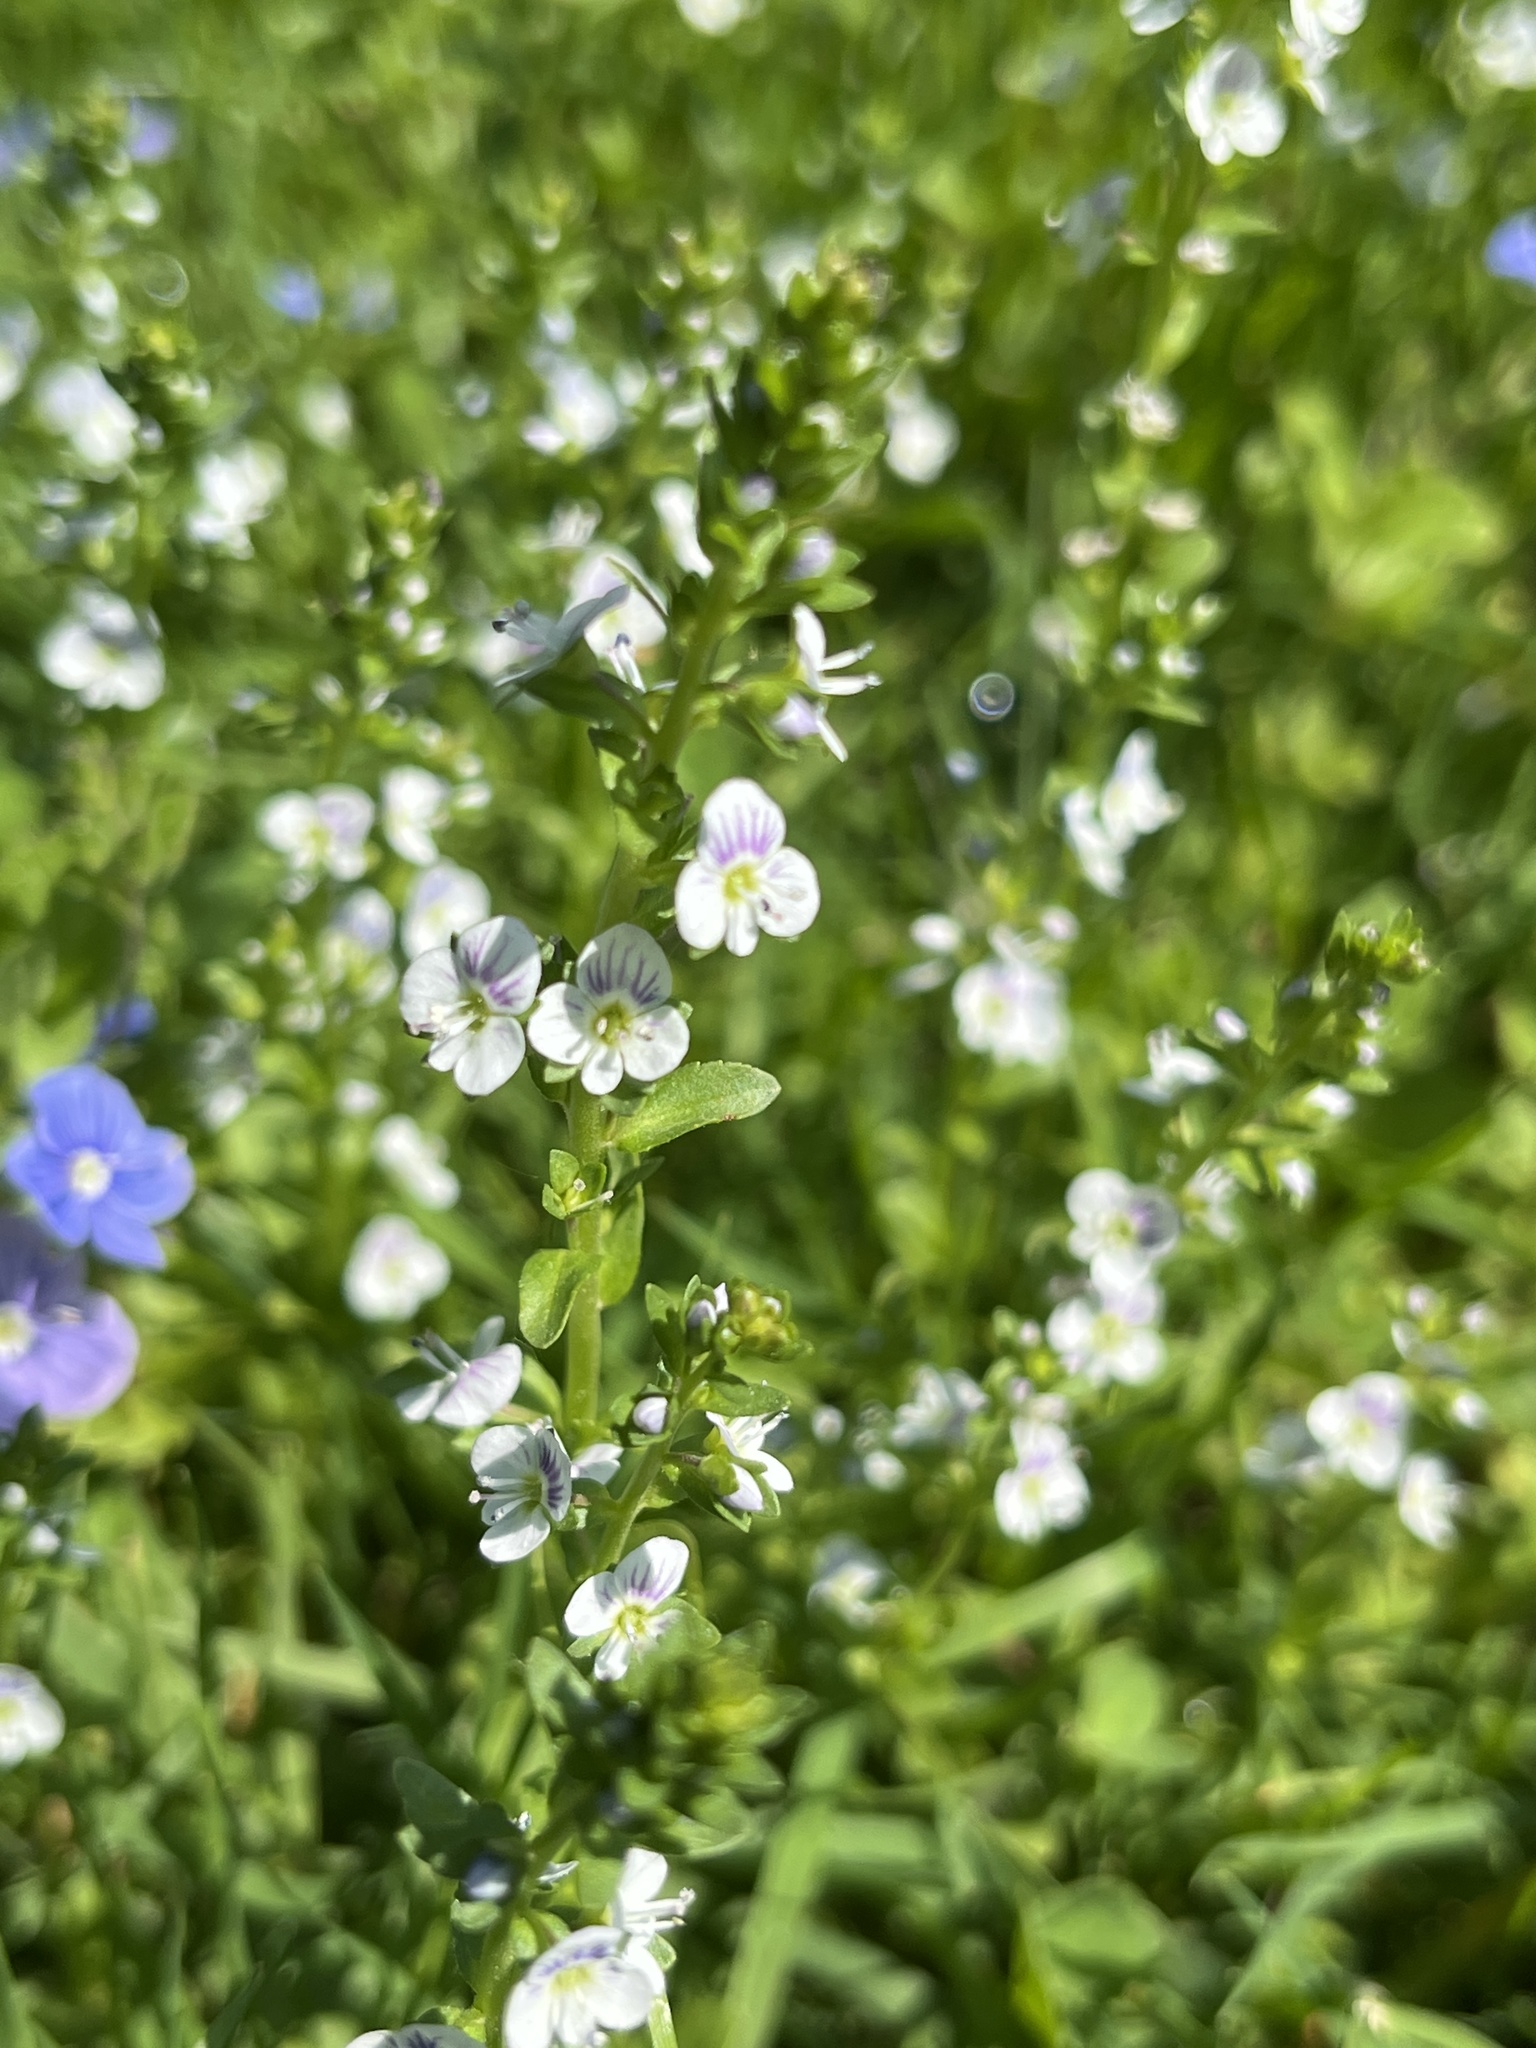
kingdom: Plantae
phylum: Tracheophyta
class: Magnoliopsida
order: Lamiales
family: Plantaginaceae
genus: Veronica
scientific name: Veronica serpyllifolia
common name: Thyme-leaved speedwell
